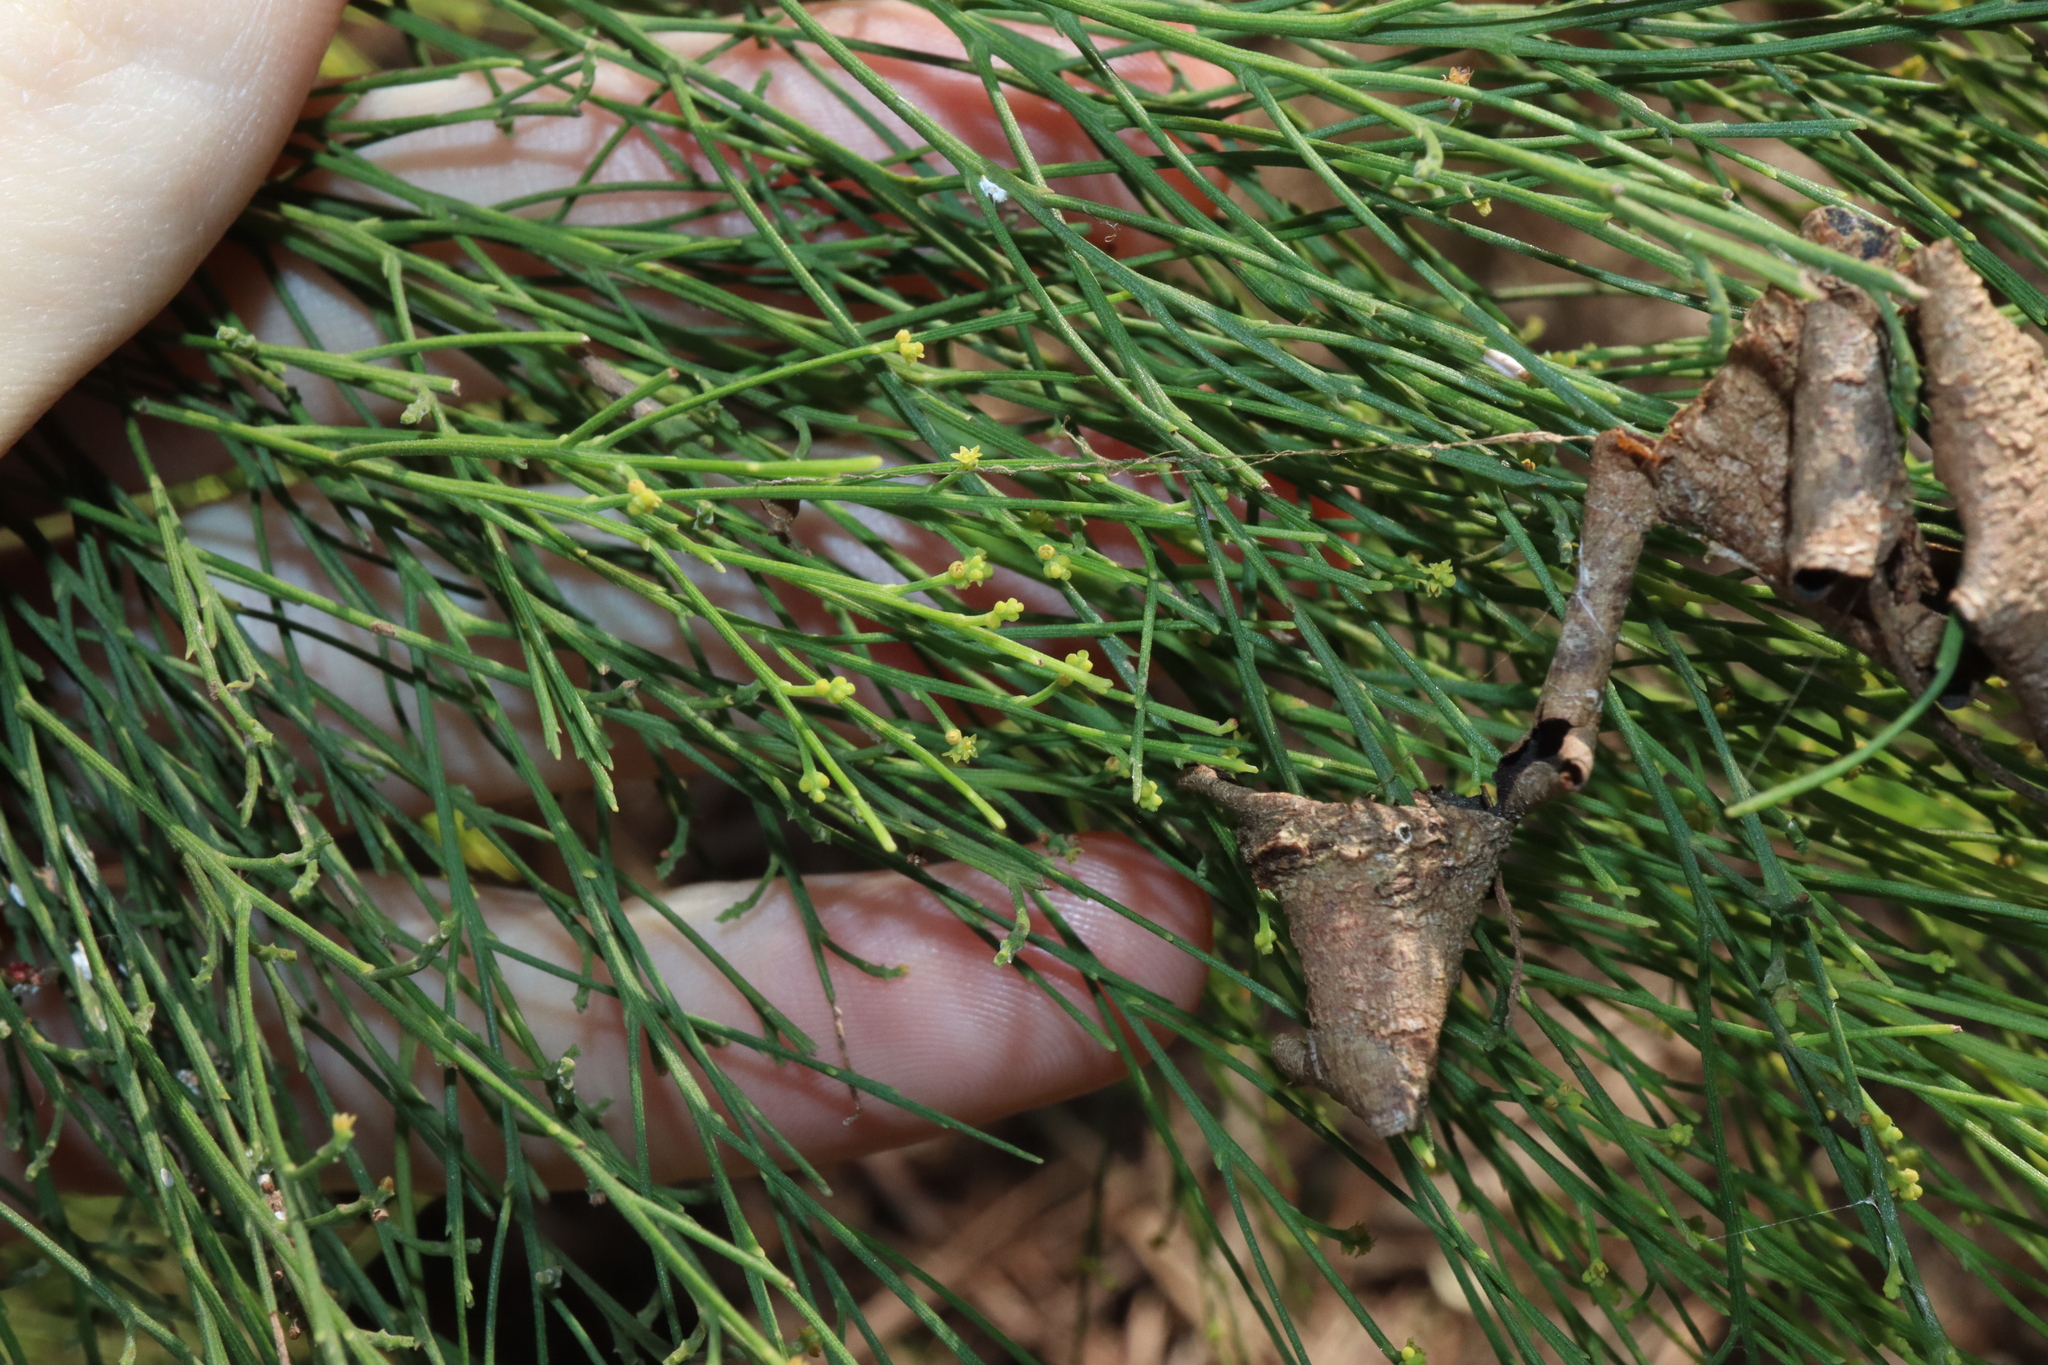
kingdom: Plantae
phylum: Tracheophyta
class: Magnoliopsida
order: Santalales
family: Santalaceae
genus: Exocarpos
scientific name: Exocarpos cupressiformis
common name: Cherry ballart
